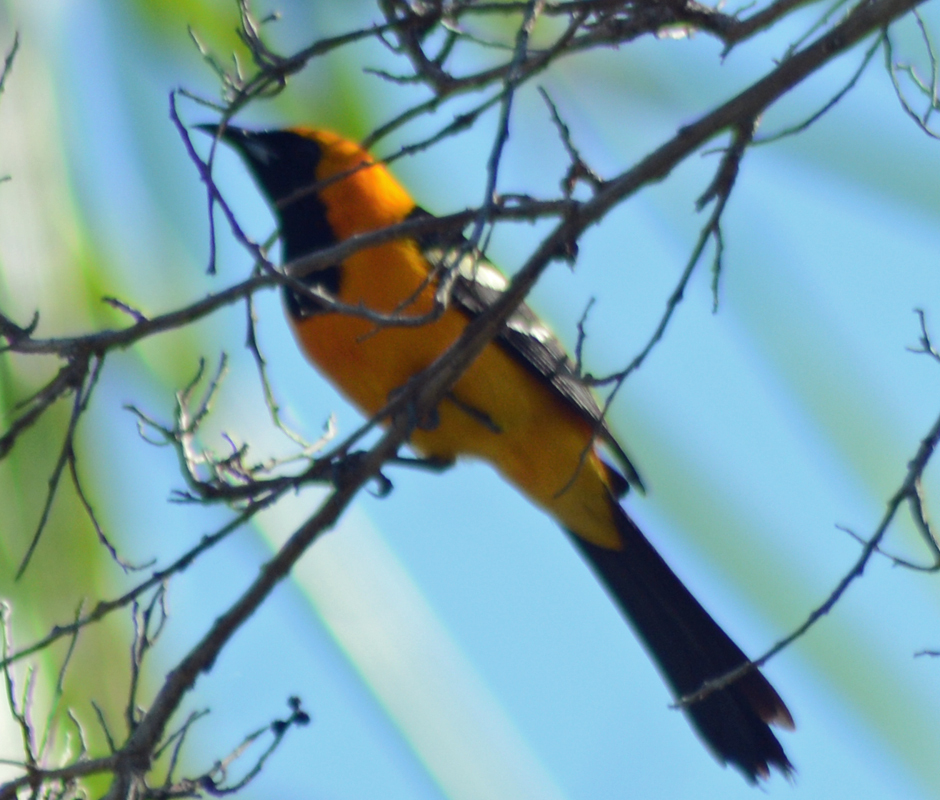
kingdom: Animalia
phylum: Chordata
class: Aves
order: Passeriformes
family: Icteridae
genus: Icterus
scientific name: Icterus cucullatus
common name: Hooded oriole
